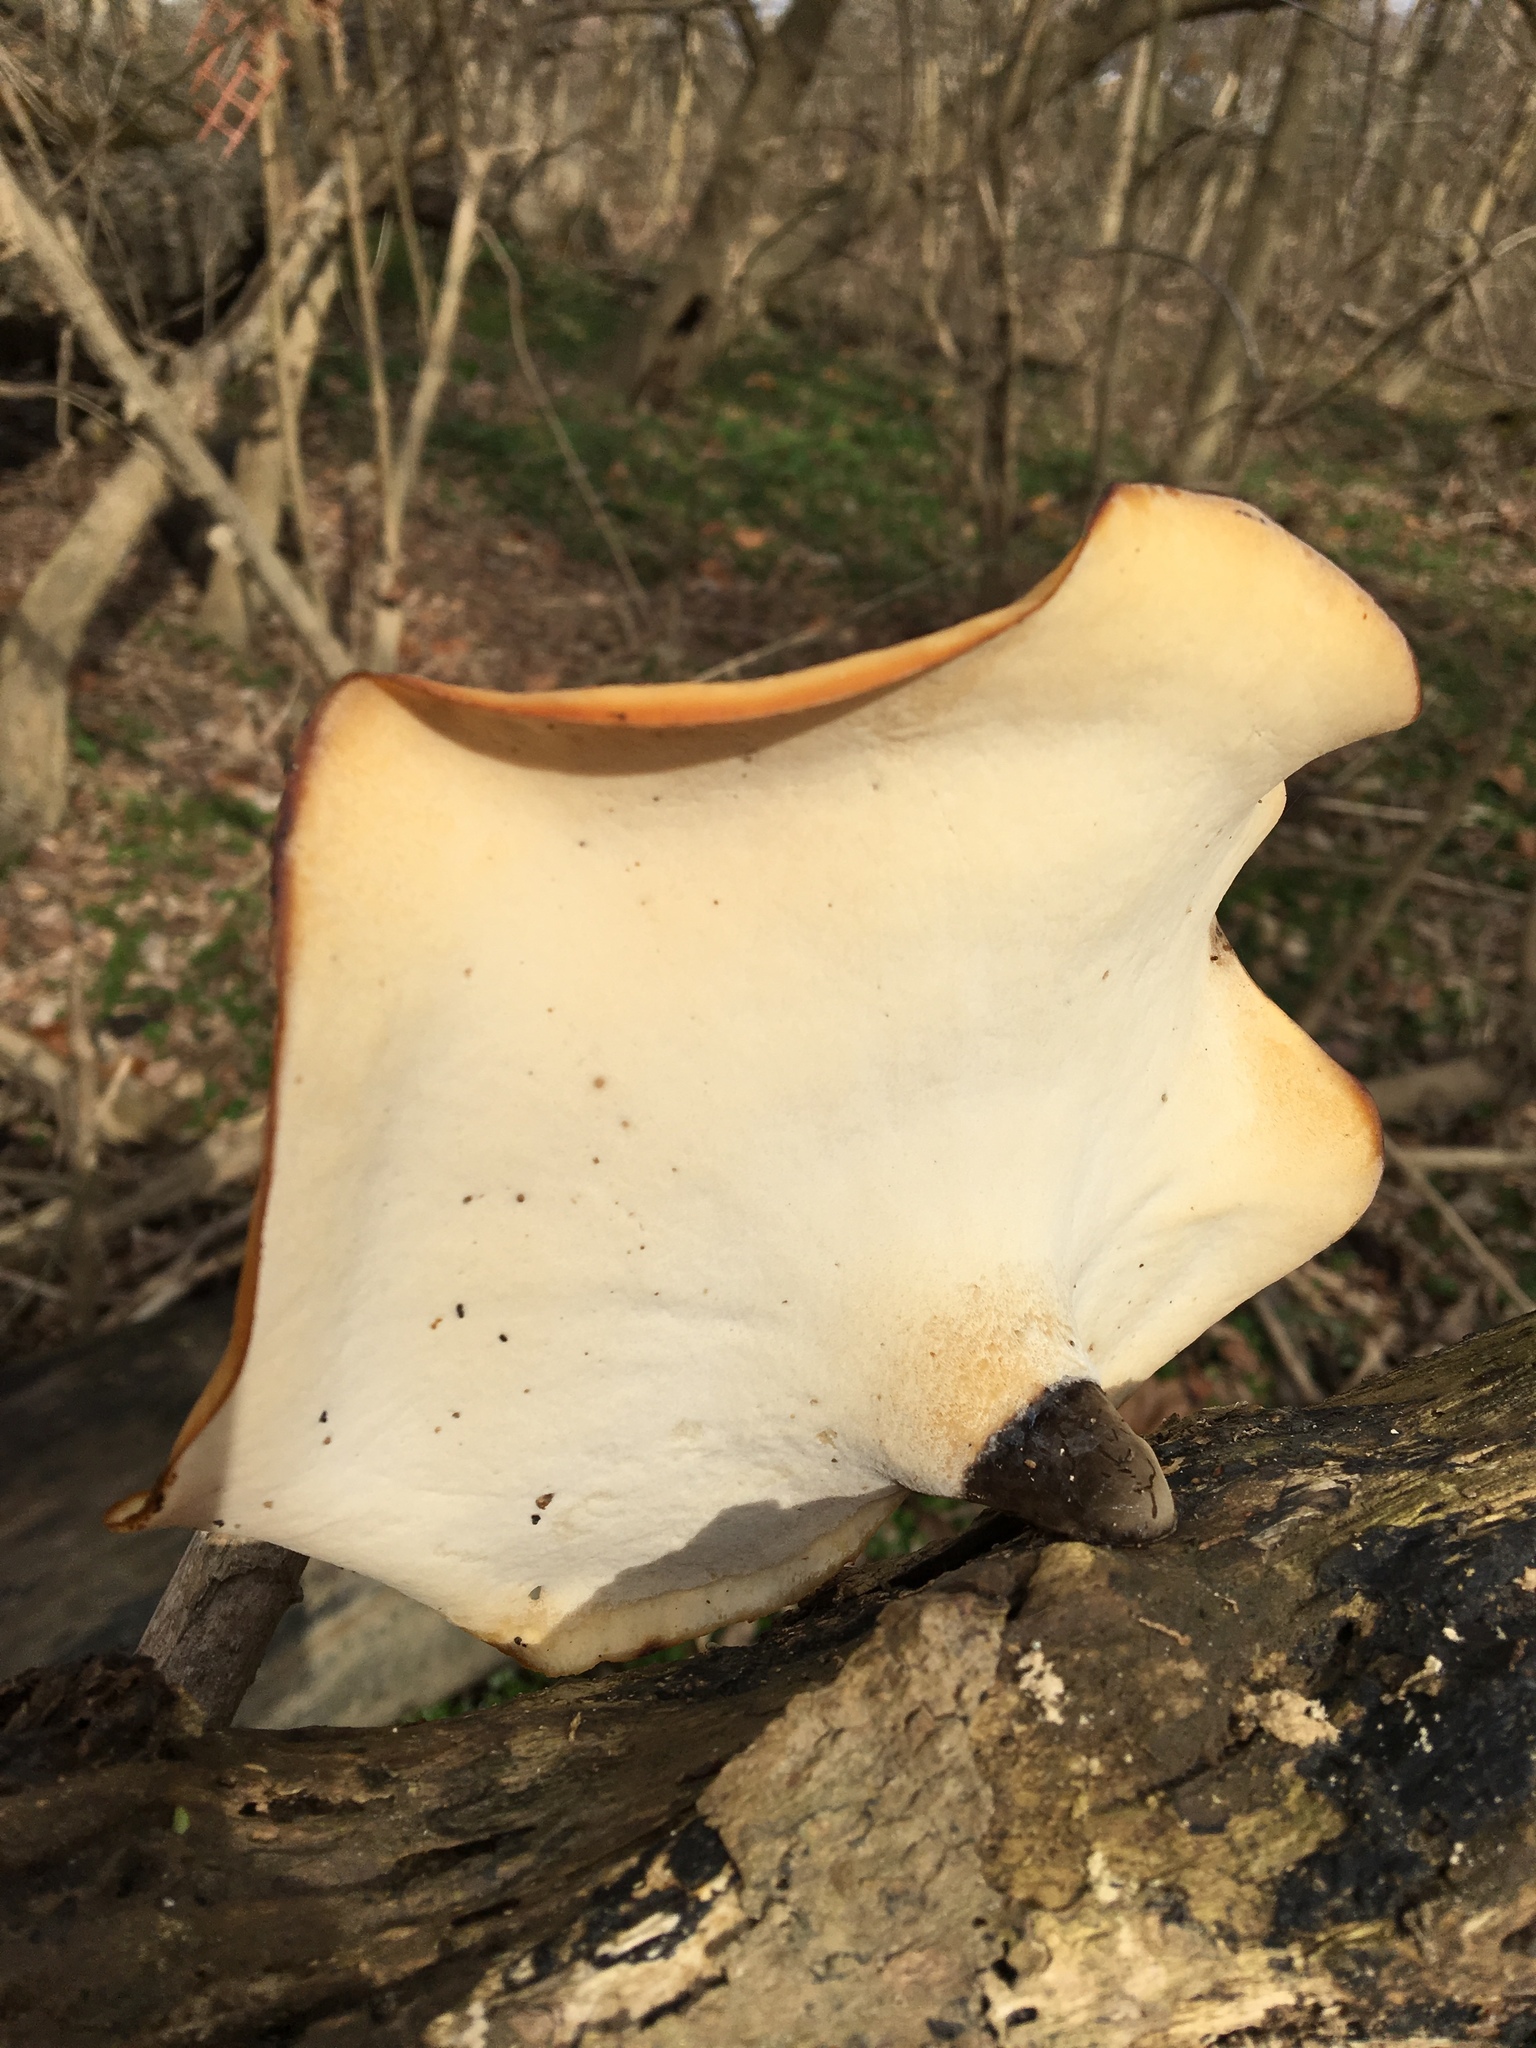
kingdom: Fungi
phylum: Basidiomycota
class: Agaricomycetes
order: Polyporales
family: Polyporaceae
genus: Picipes
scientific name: Picipes badius
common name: Bay polypore
